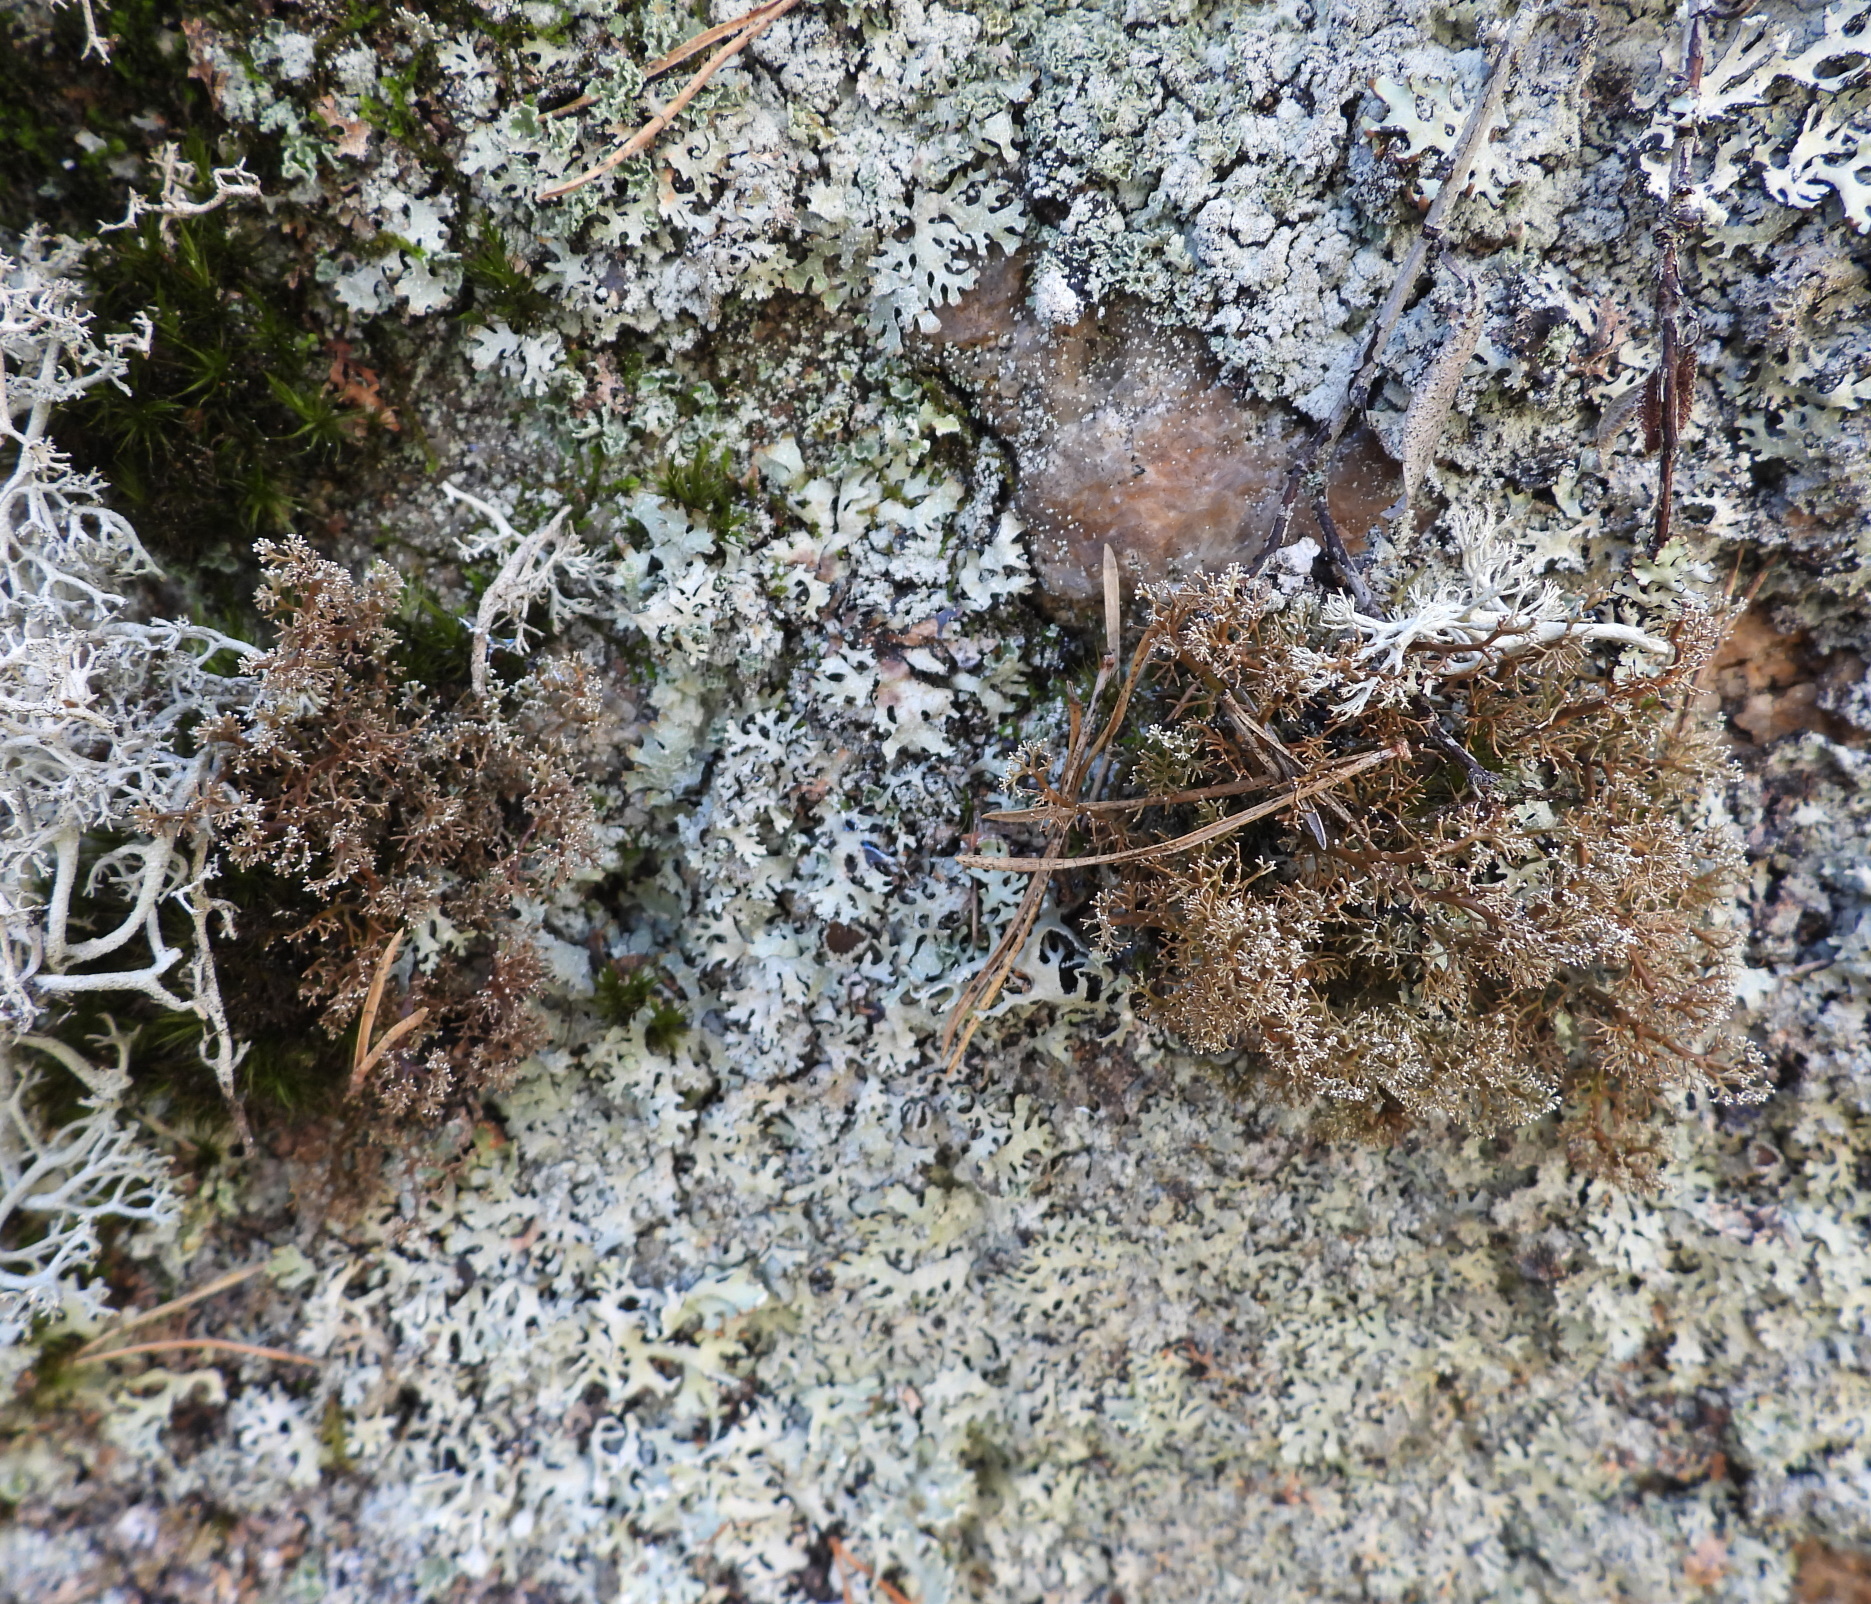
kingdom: Fungi
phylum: Ascomycota
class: Lecanoromycetes
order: Lecanorales
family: Sphaerophoraceae
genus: Sphaerophorus
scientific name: Sphaerophorus globosus
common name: Globe ball lichen
